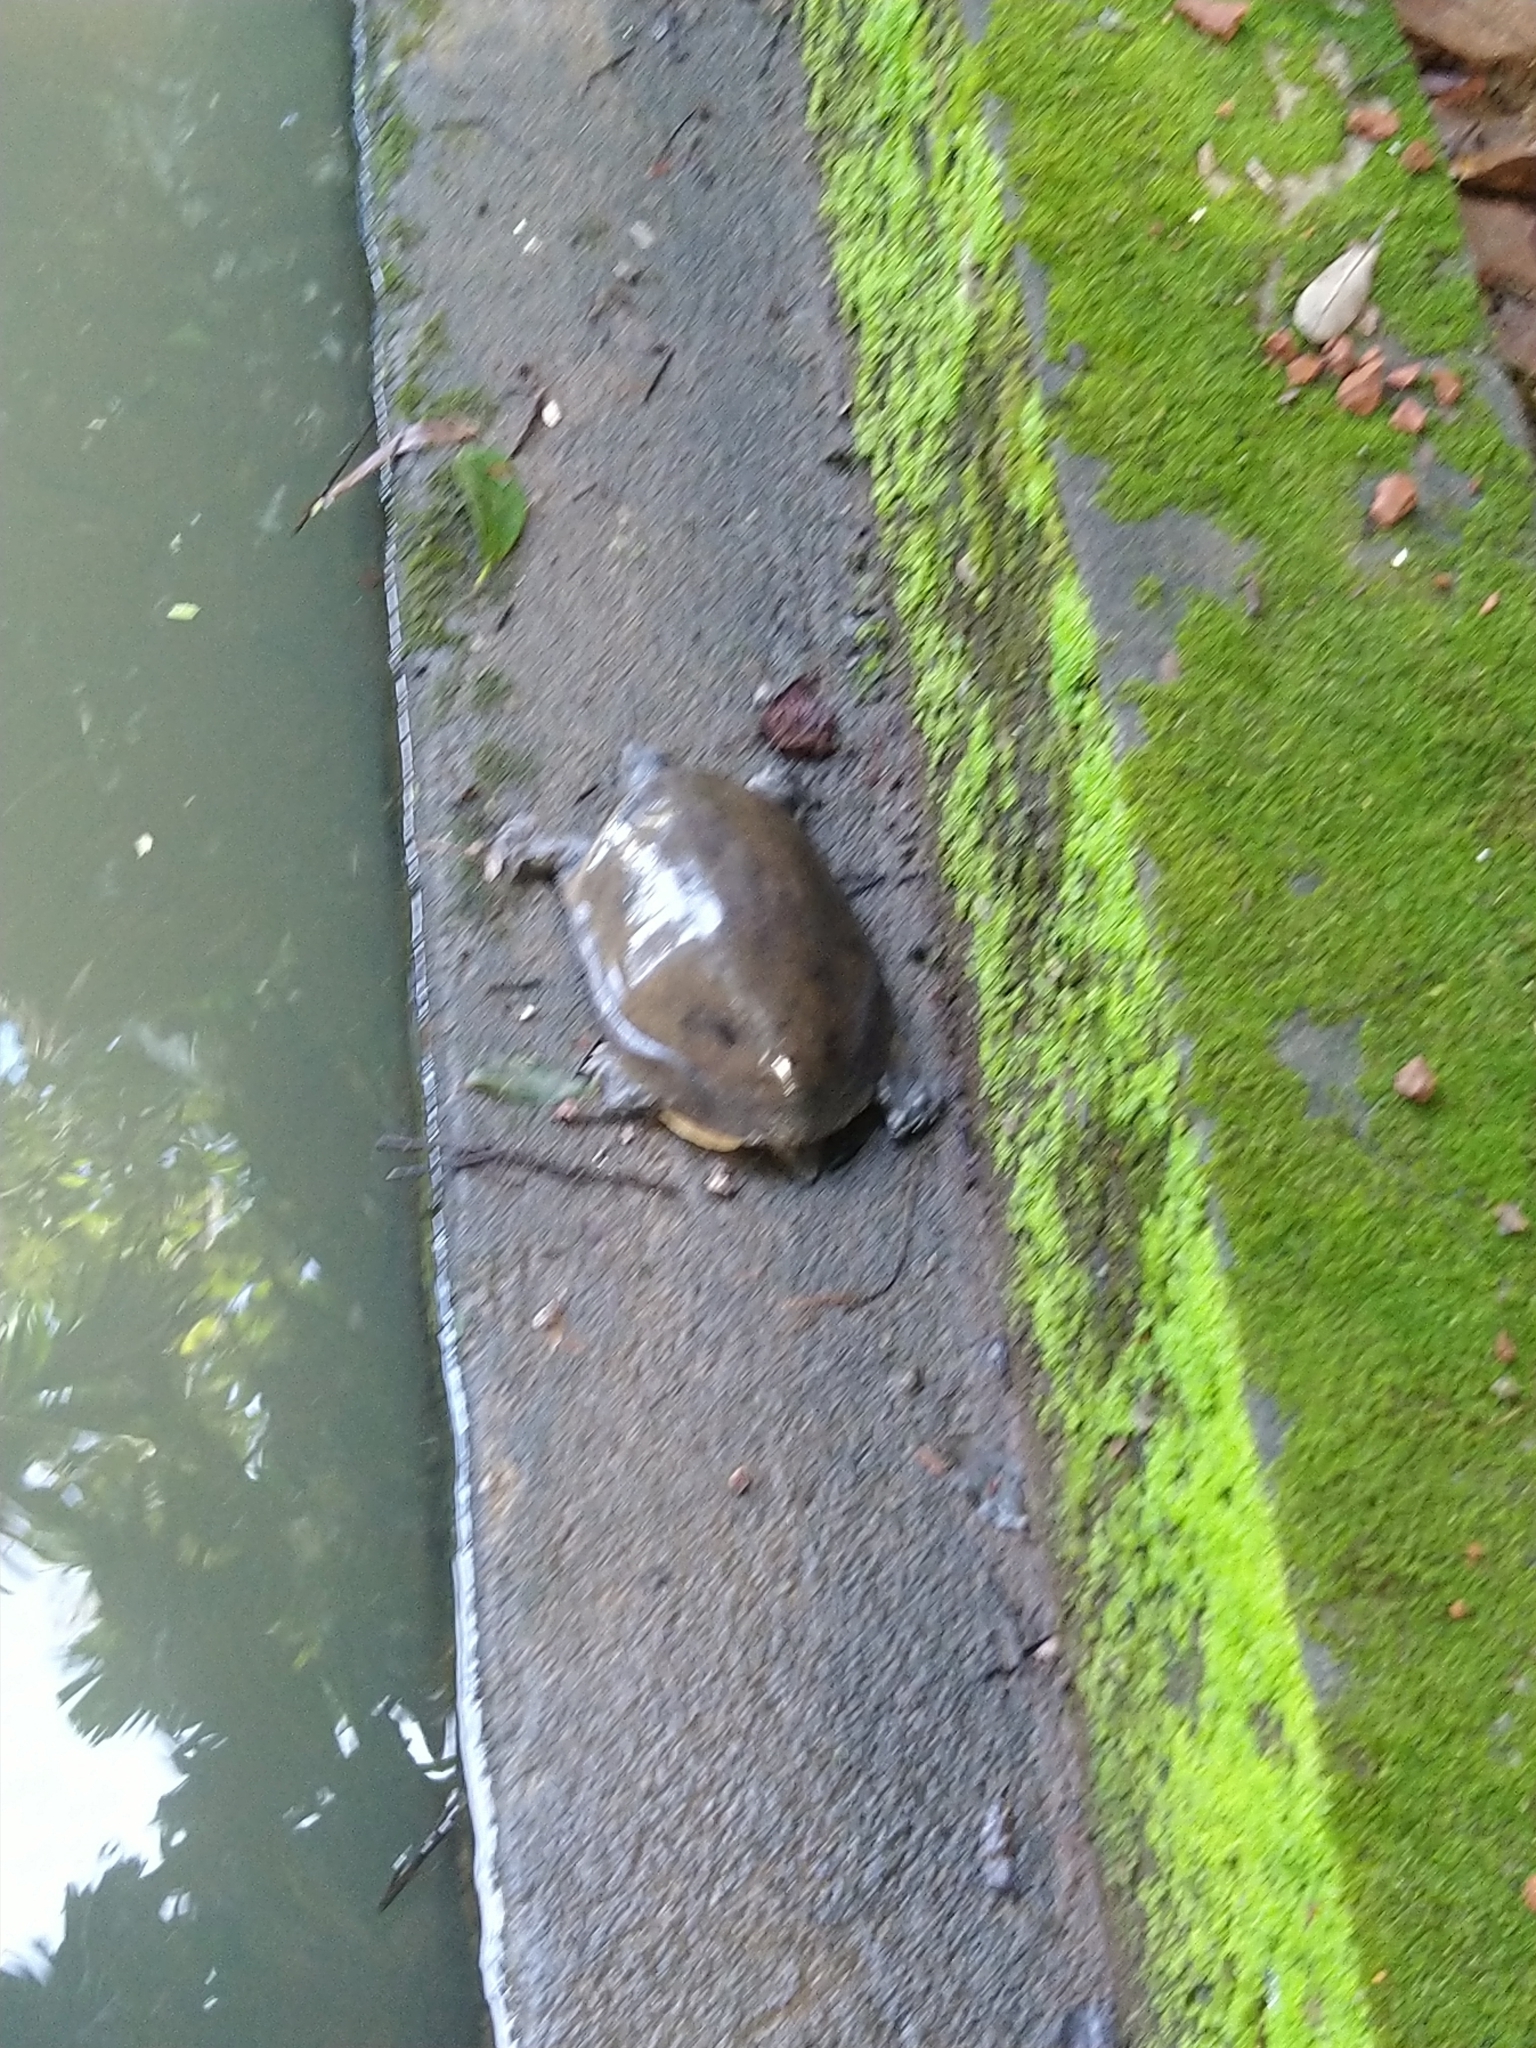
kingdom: Animalia
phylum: Chordata
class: Testudines
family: Trionychidae
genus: Lissemys
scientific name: Lissemys punctata
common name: Indian flap-shelled turtle
